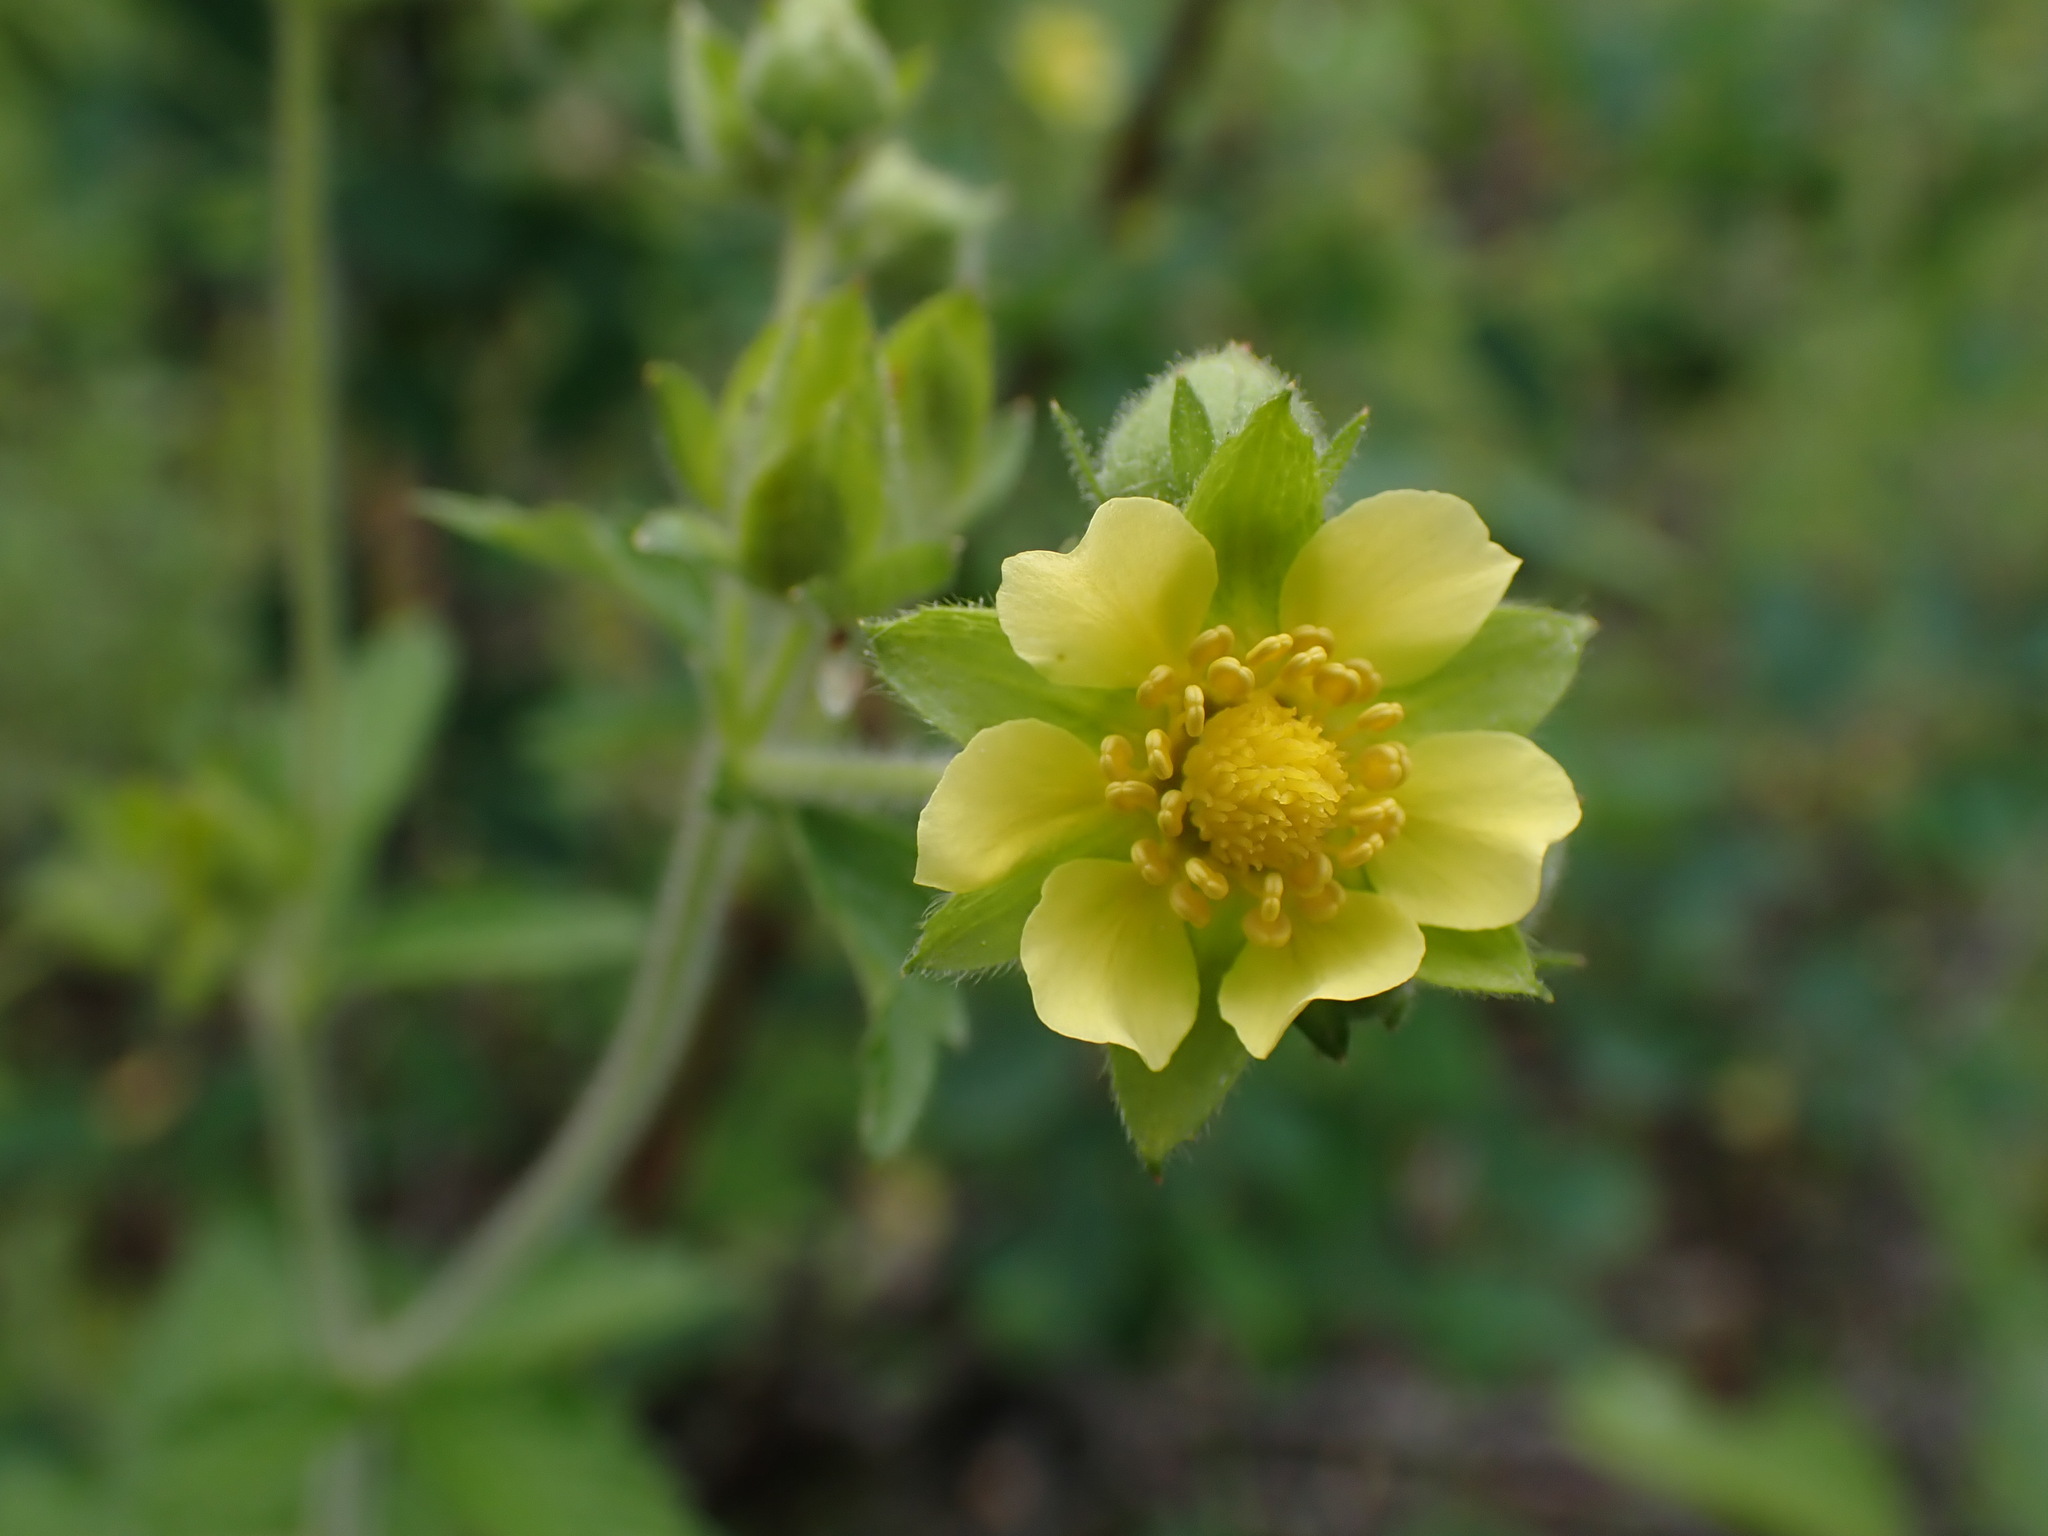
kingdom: Plantae
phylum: Tracheophyta
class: Magnoliopsida
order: Rosales
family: Rosaceae
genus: Drymocallis
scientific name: Drymocallis glandulosa
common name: Sticky cinquefoil
